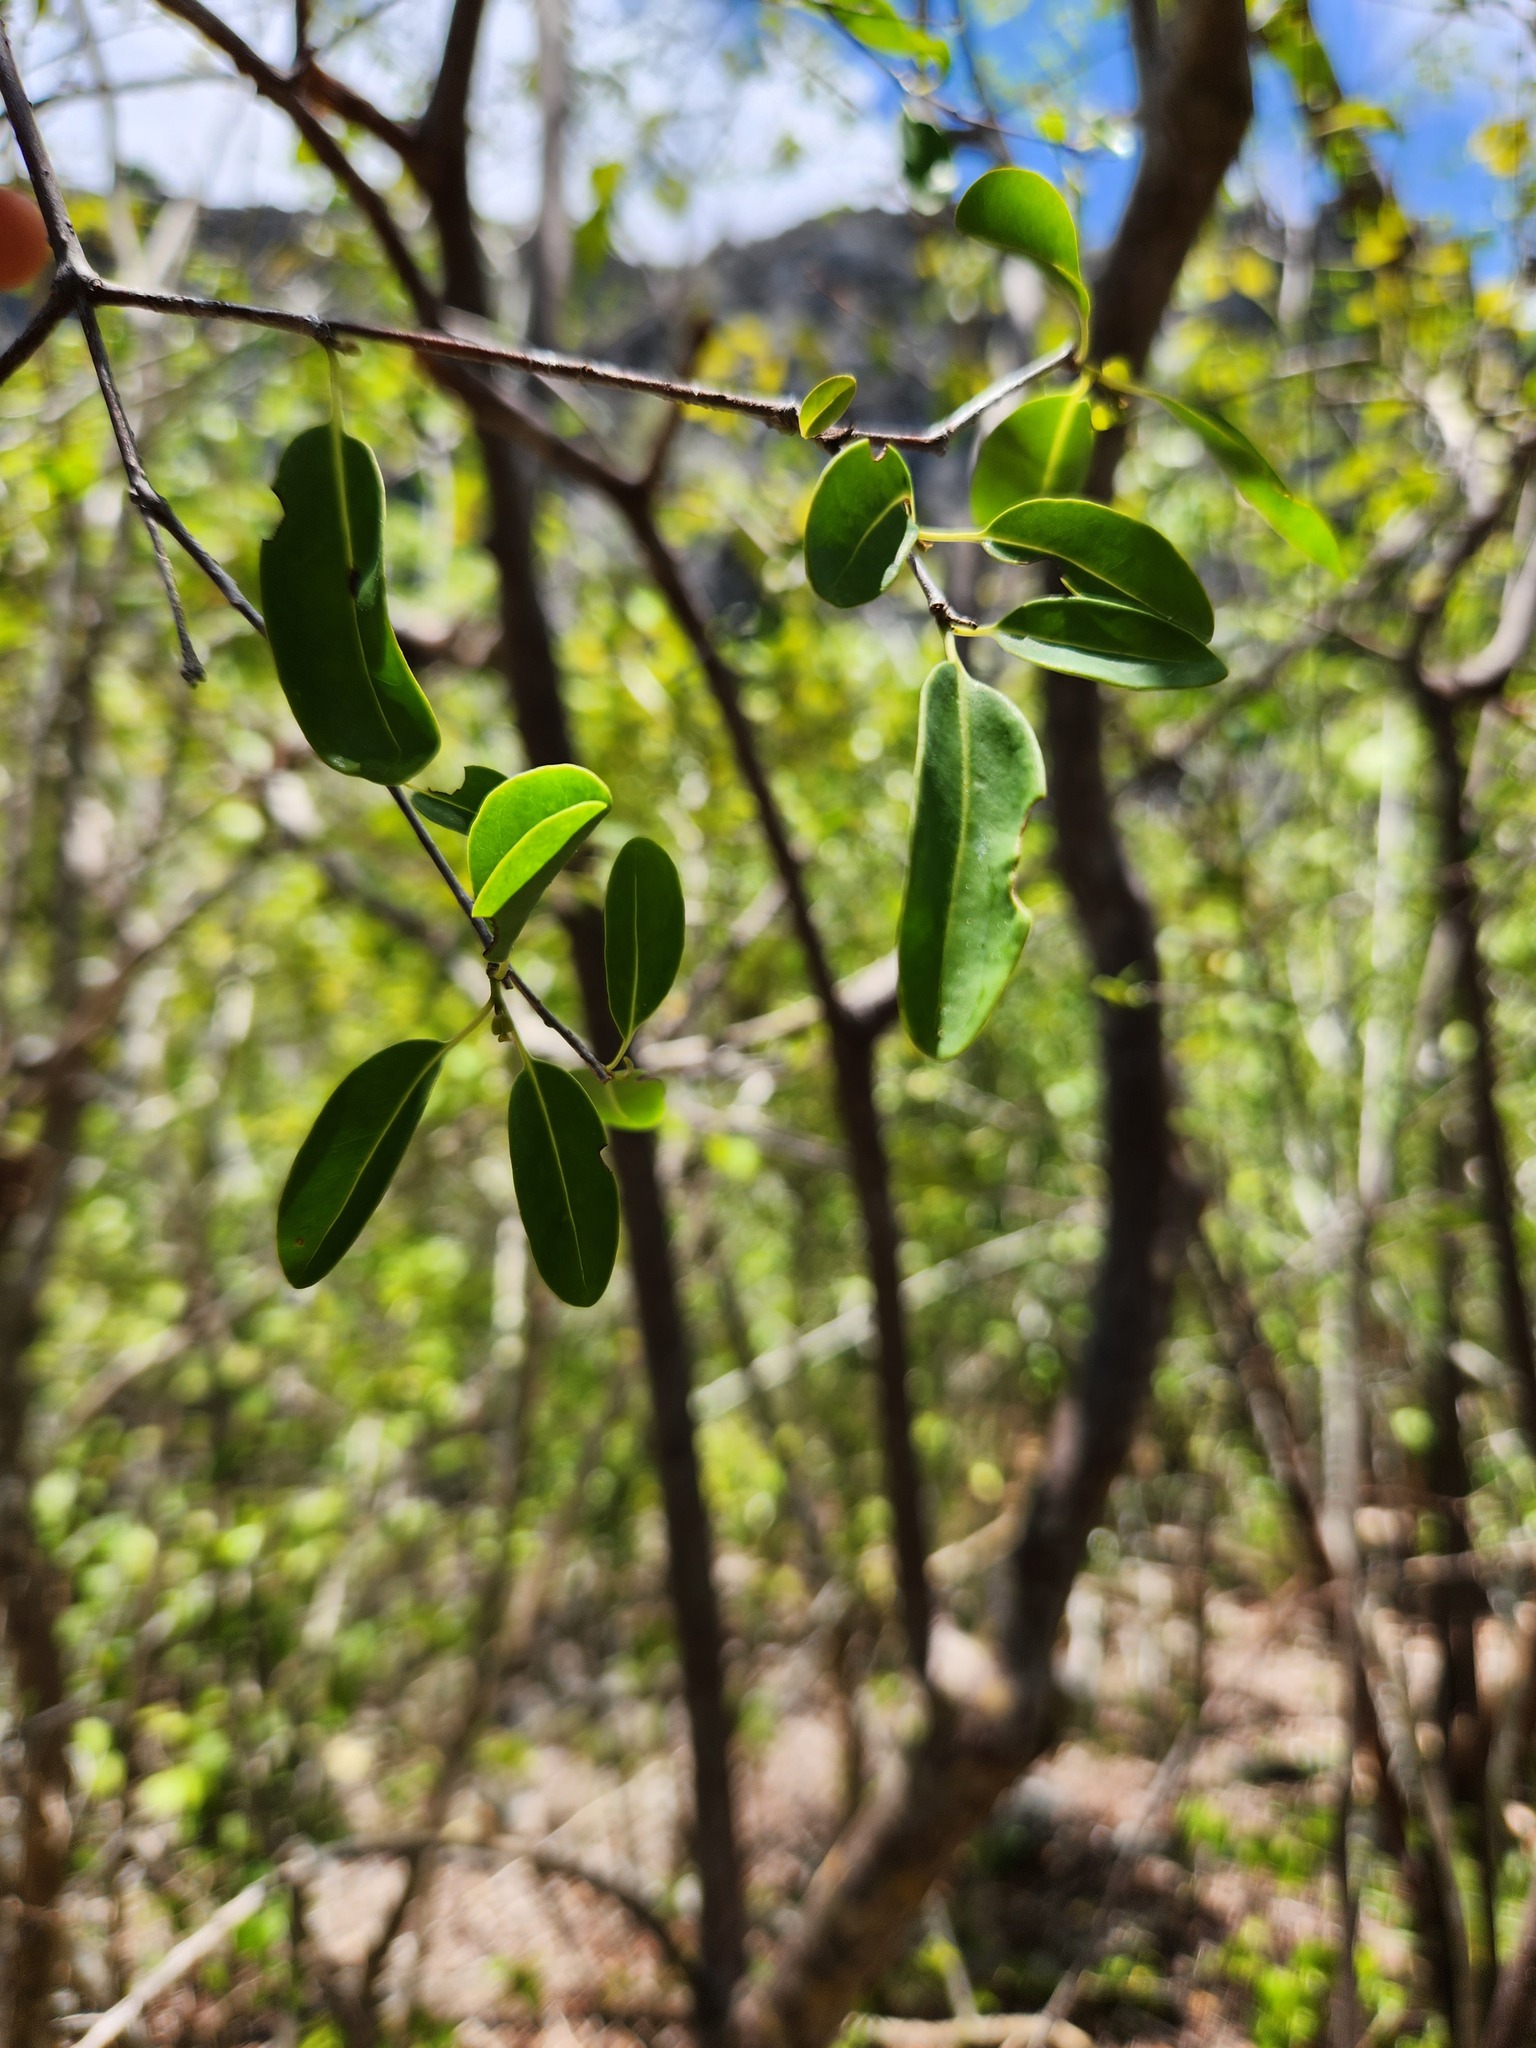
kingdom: Plantae
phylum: Tracheophyta
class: Magnoliopsida
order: Caryophyllales
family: Nyctaginaceae
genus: Guapira
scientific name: Guapira discolor
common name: Beeftree
